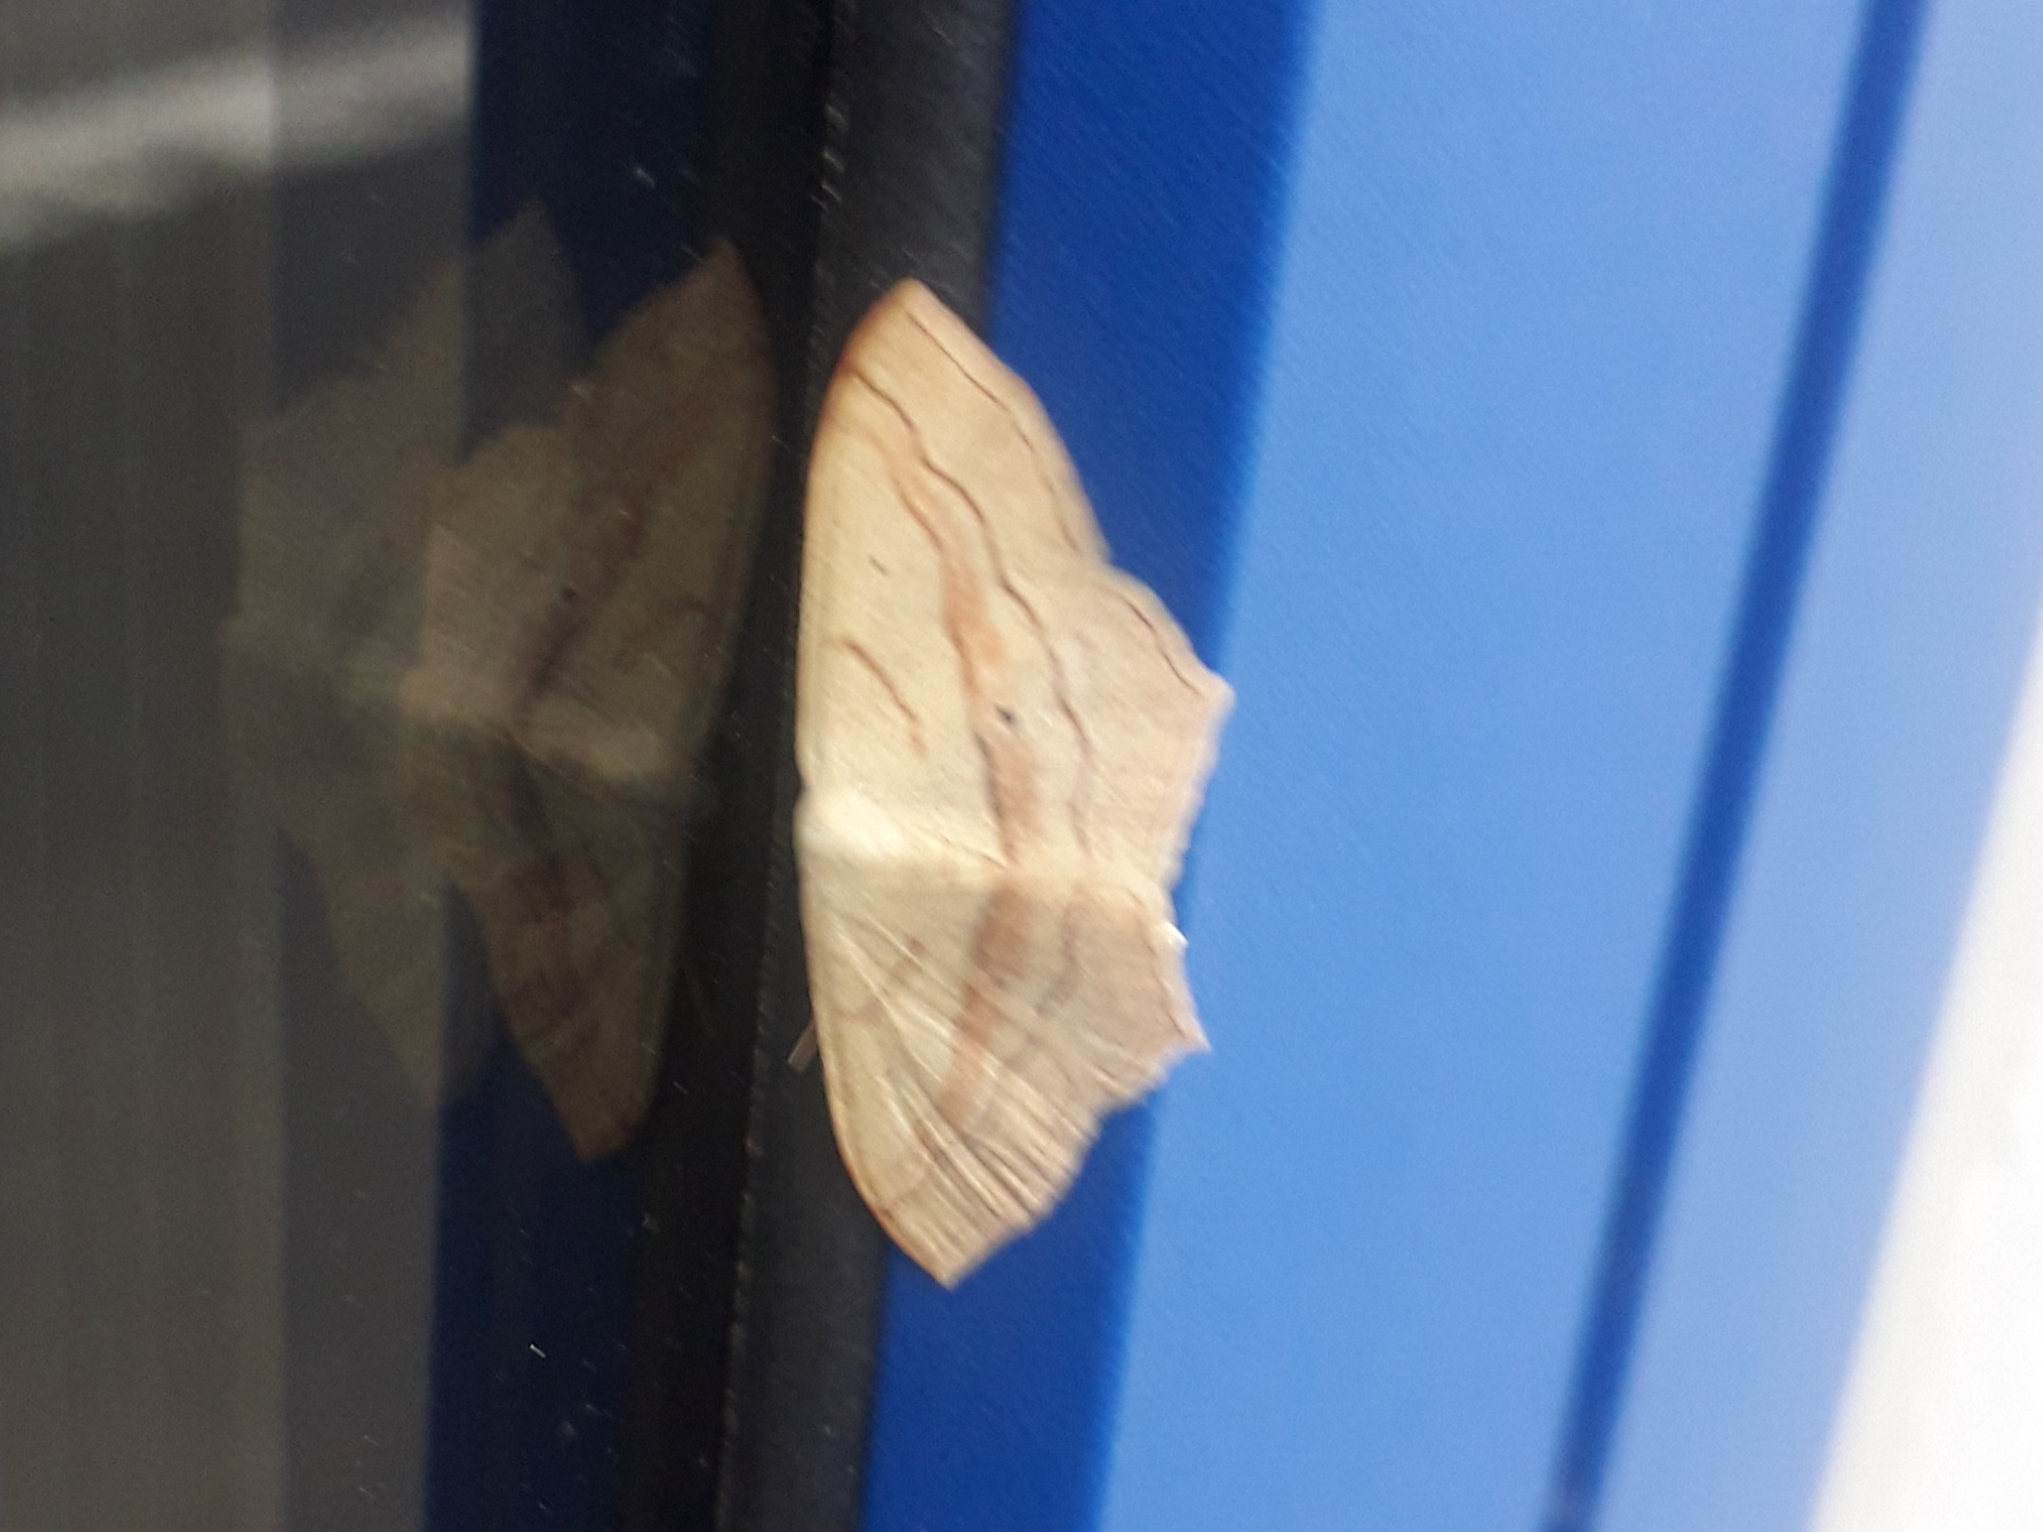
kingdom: Animalia
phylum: Arthropoda
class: Insecta
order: Lepidoptera
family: Geometridae
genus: Scopula
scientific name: Scopula imitaria
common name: Small blood-vein
